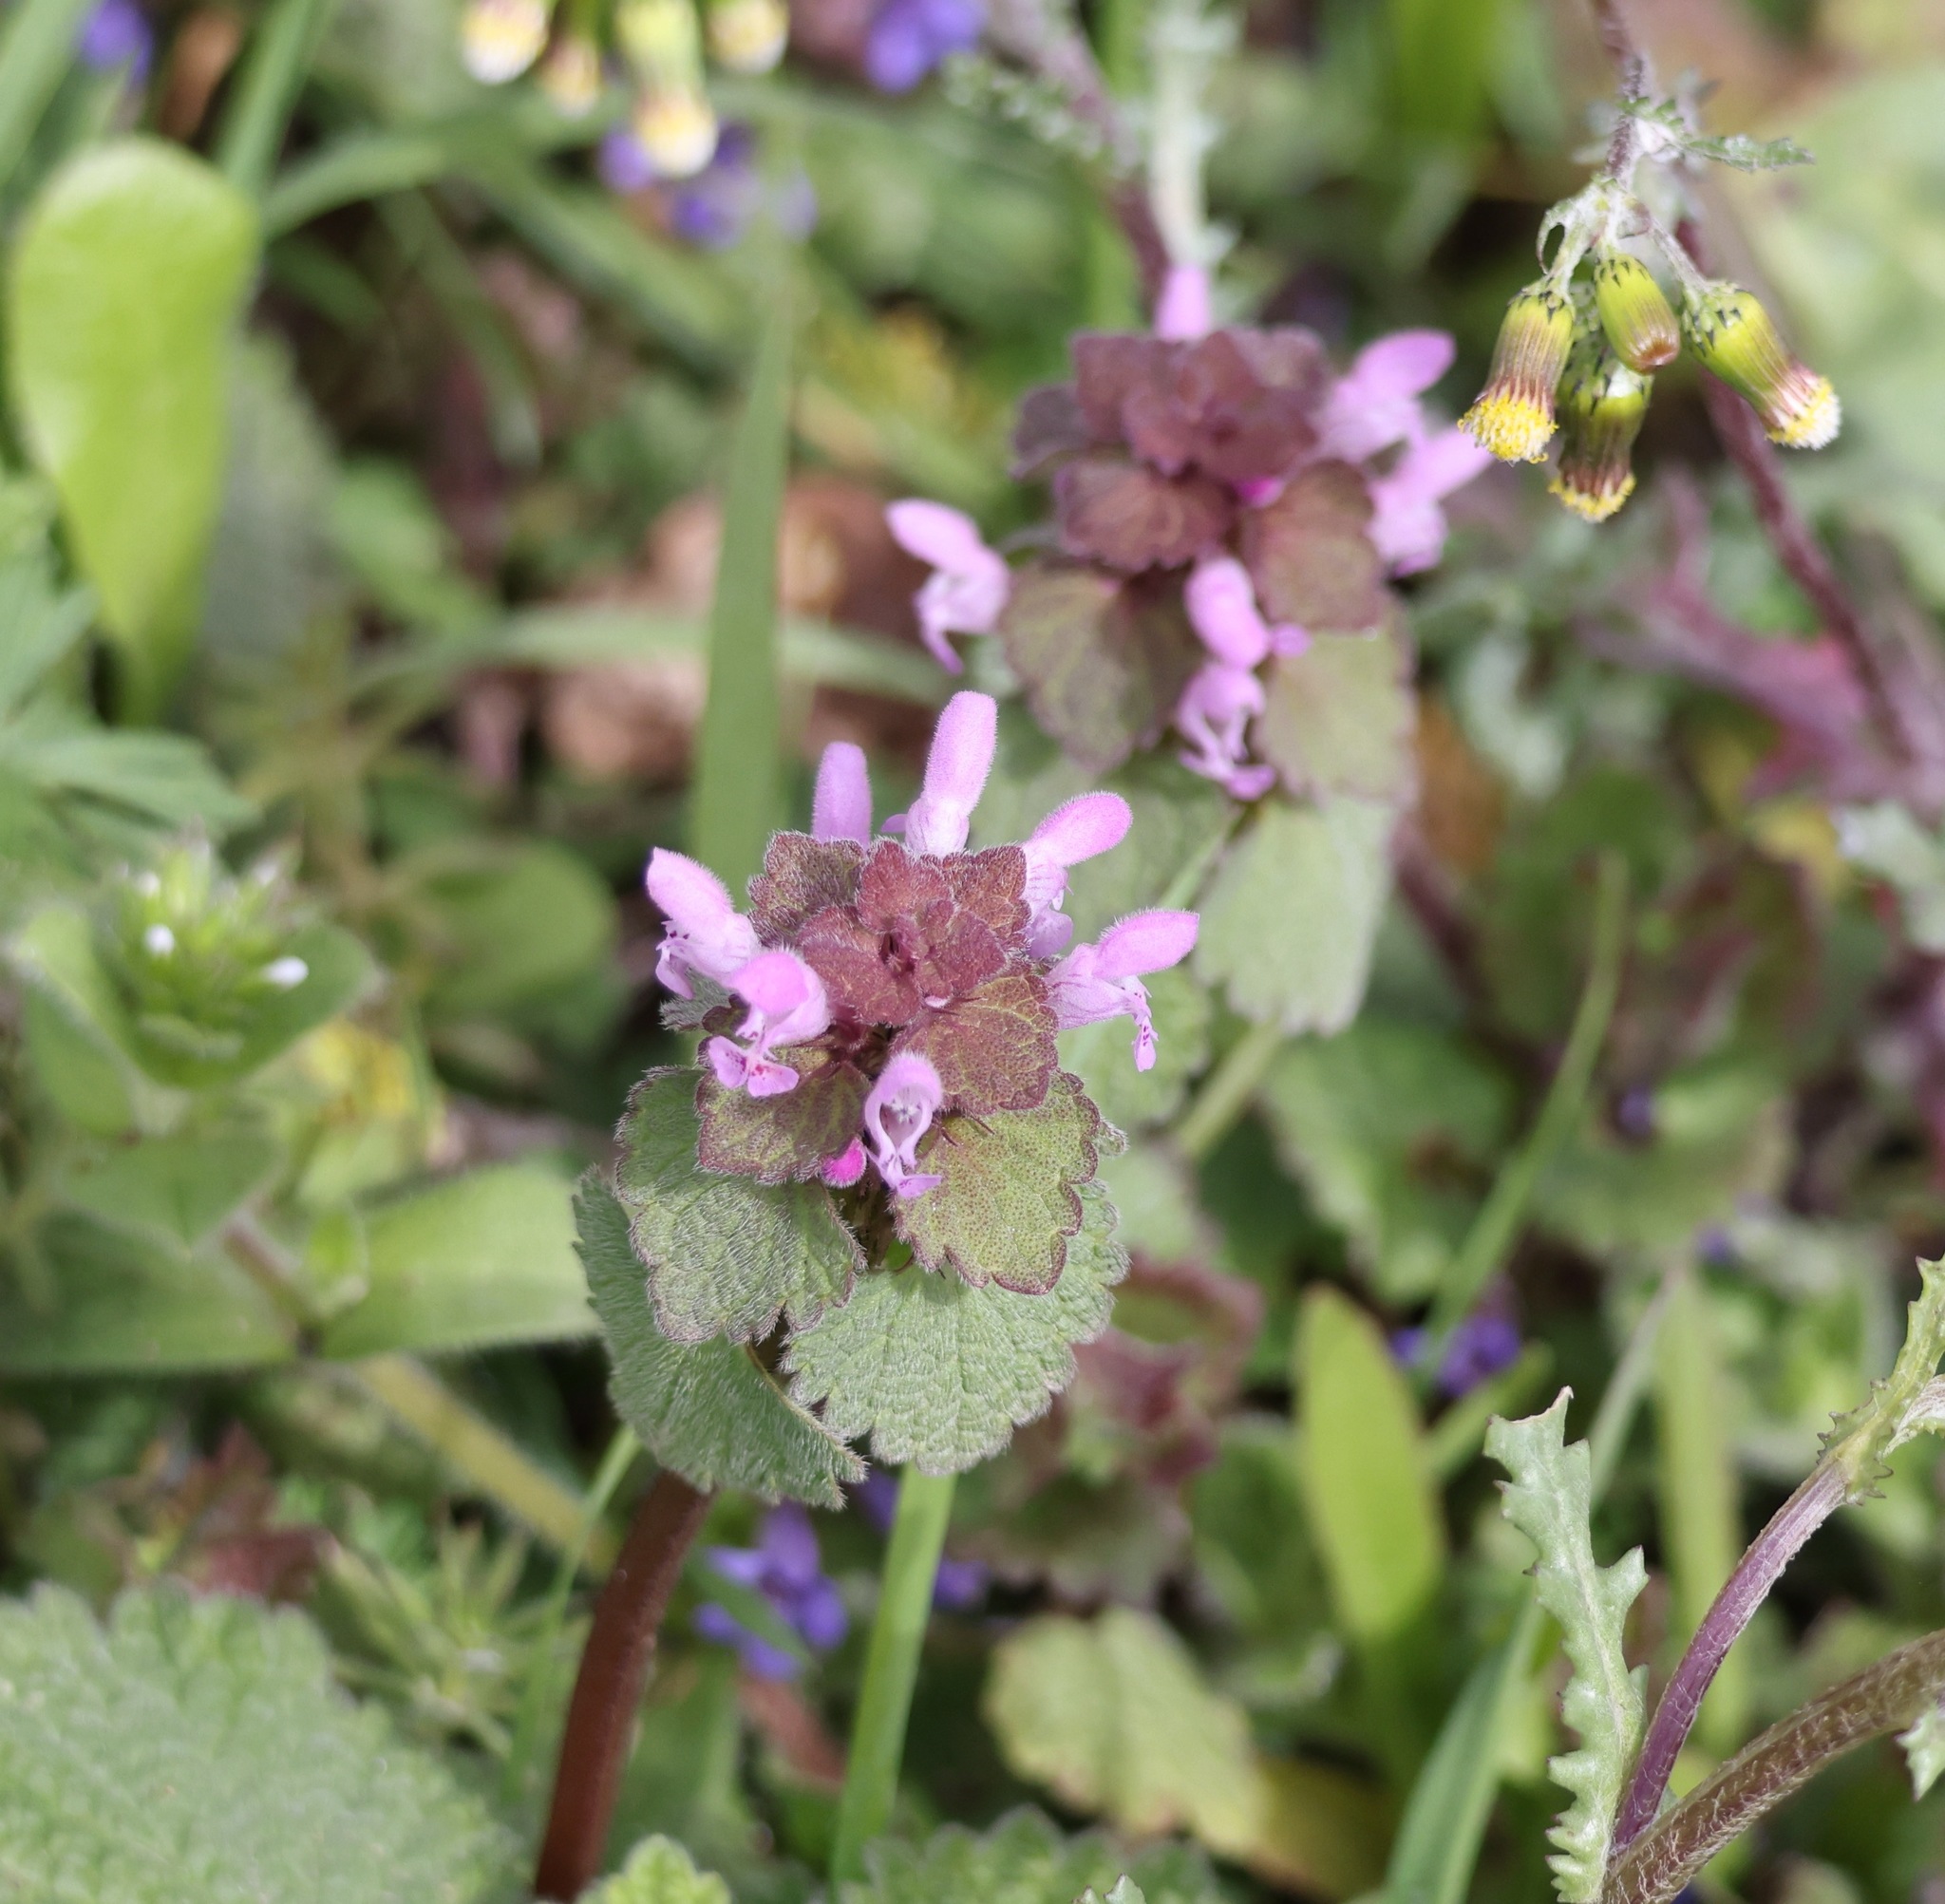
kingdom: Plantae
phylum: Tracheophyta
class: Magnoliopsida
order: Lamiales
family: Lamiaceae
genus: Lamium
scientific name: Lamium purpureum
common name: Red dead-nettle
